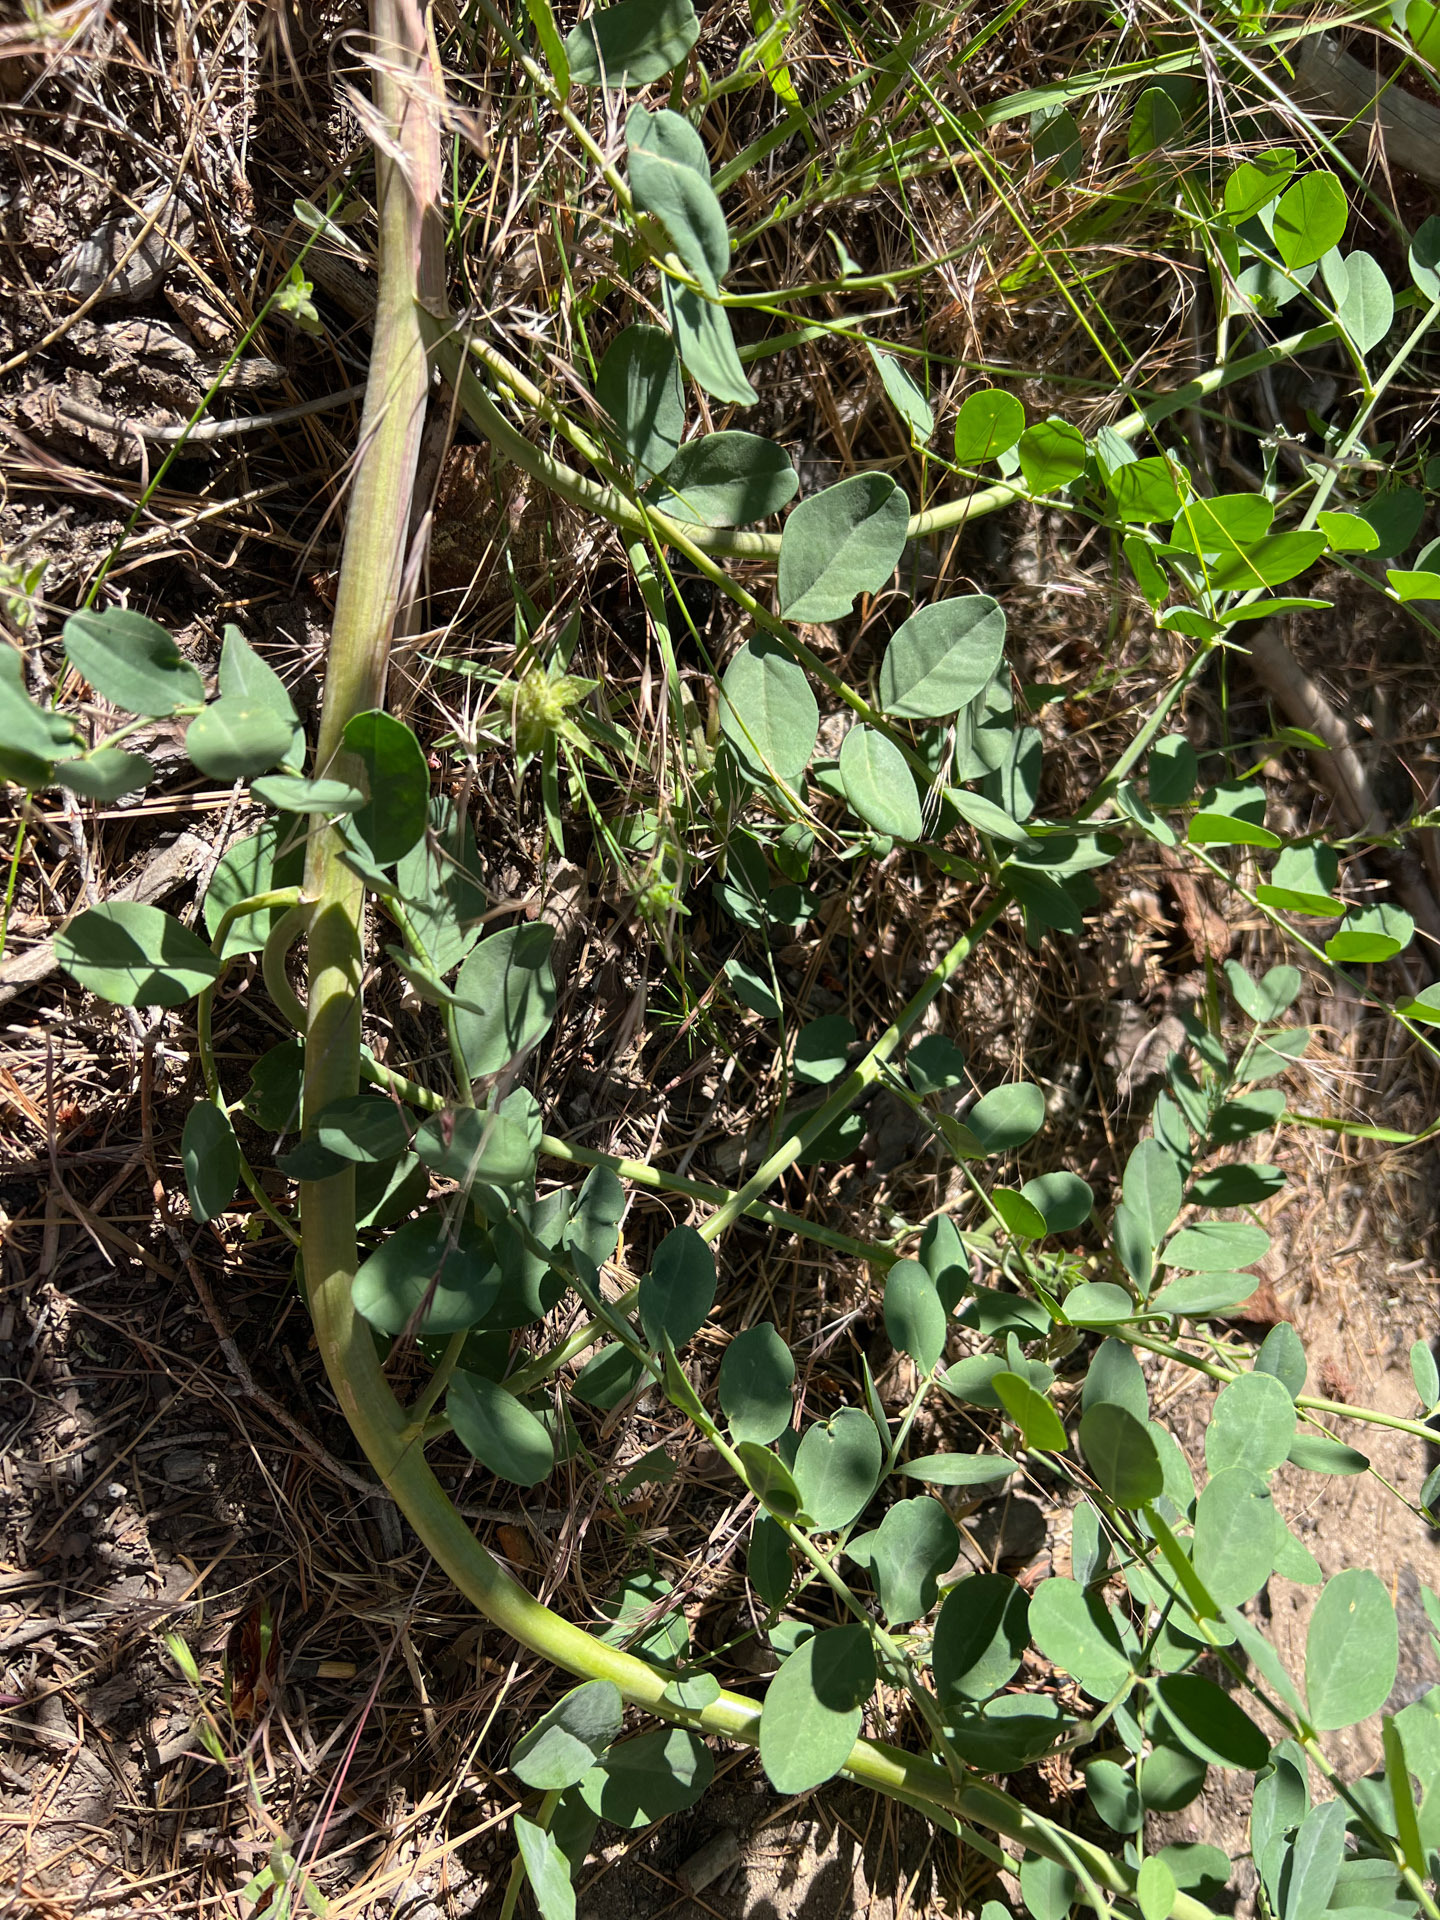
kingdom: Plantae
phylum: Tracheophyta
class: Magnoliopsida
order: Fabales
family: Fabaceae
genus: Hosackia
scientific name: Hosackia crassifolia
